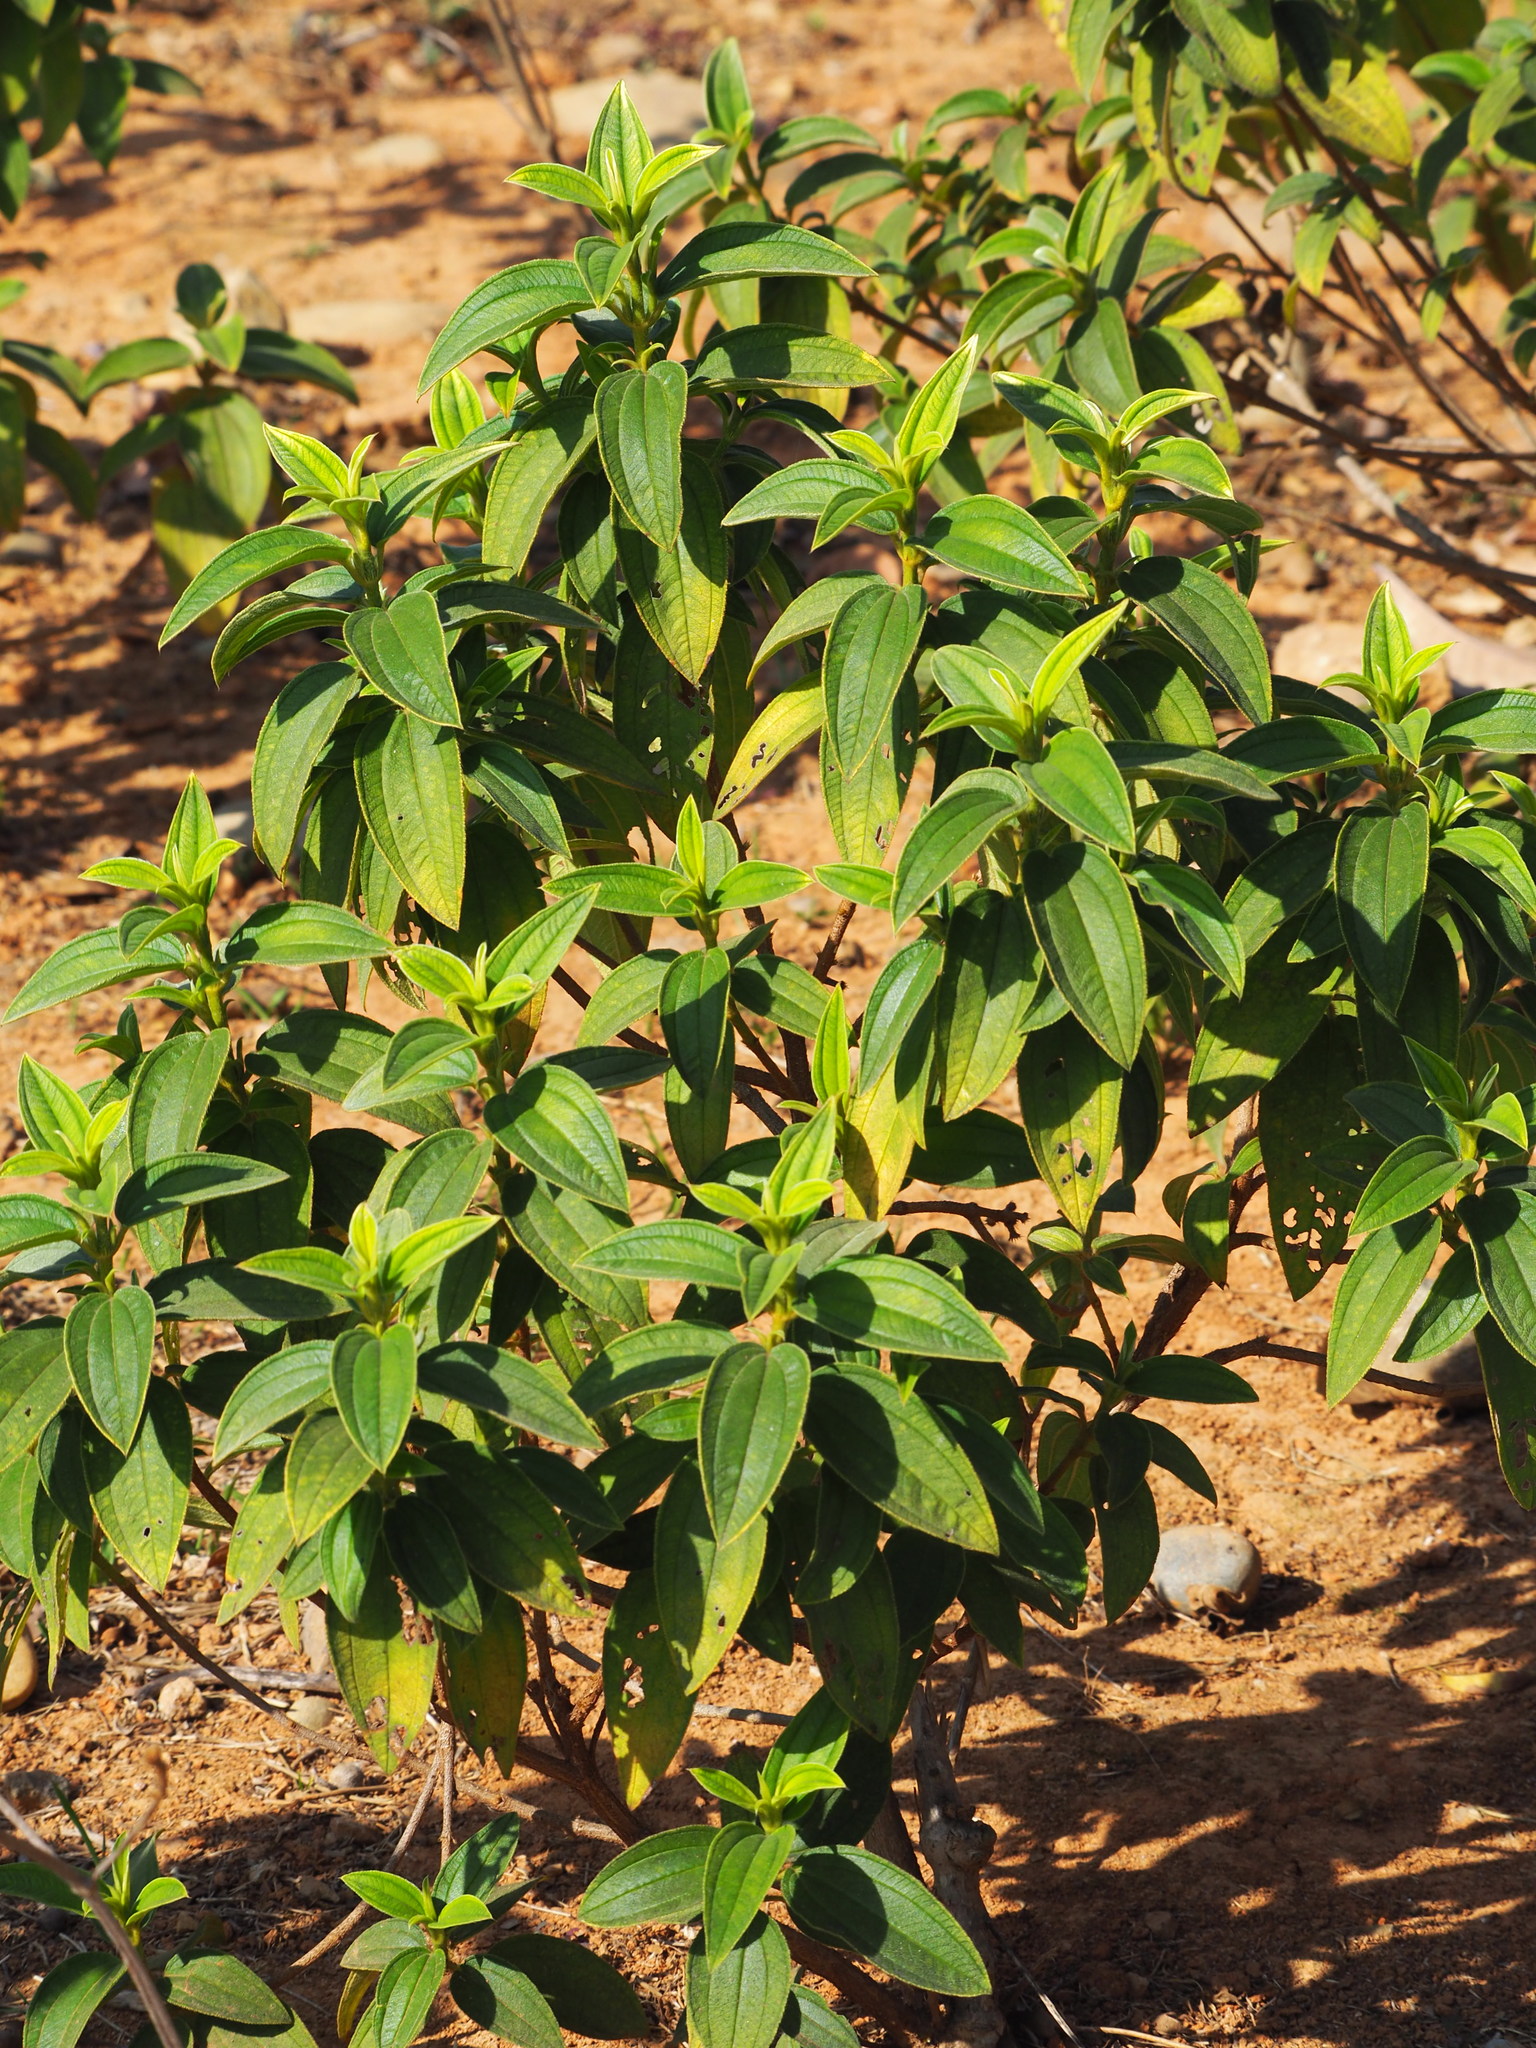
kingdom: Plantae
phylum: Tracheophyta
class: Magnoliopsida
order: Myrtales
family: Melastomataceae
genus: Melastoma
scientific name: Melastoma malabathricum
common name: Indian-rhododendron
